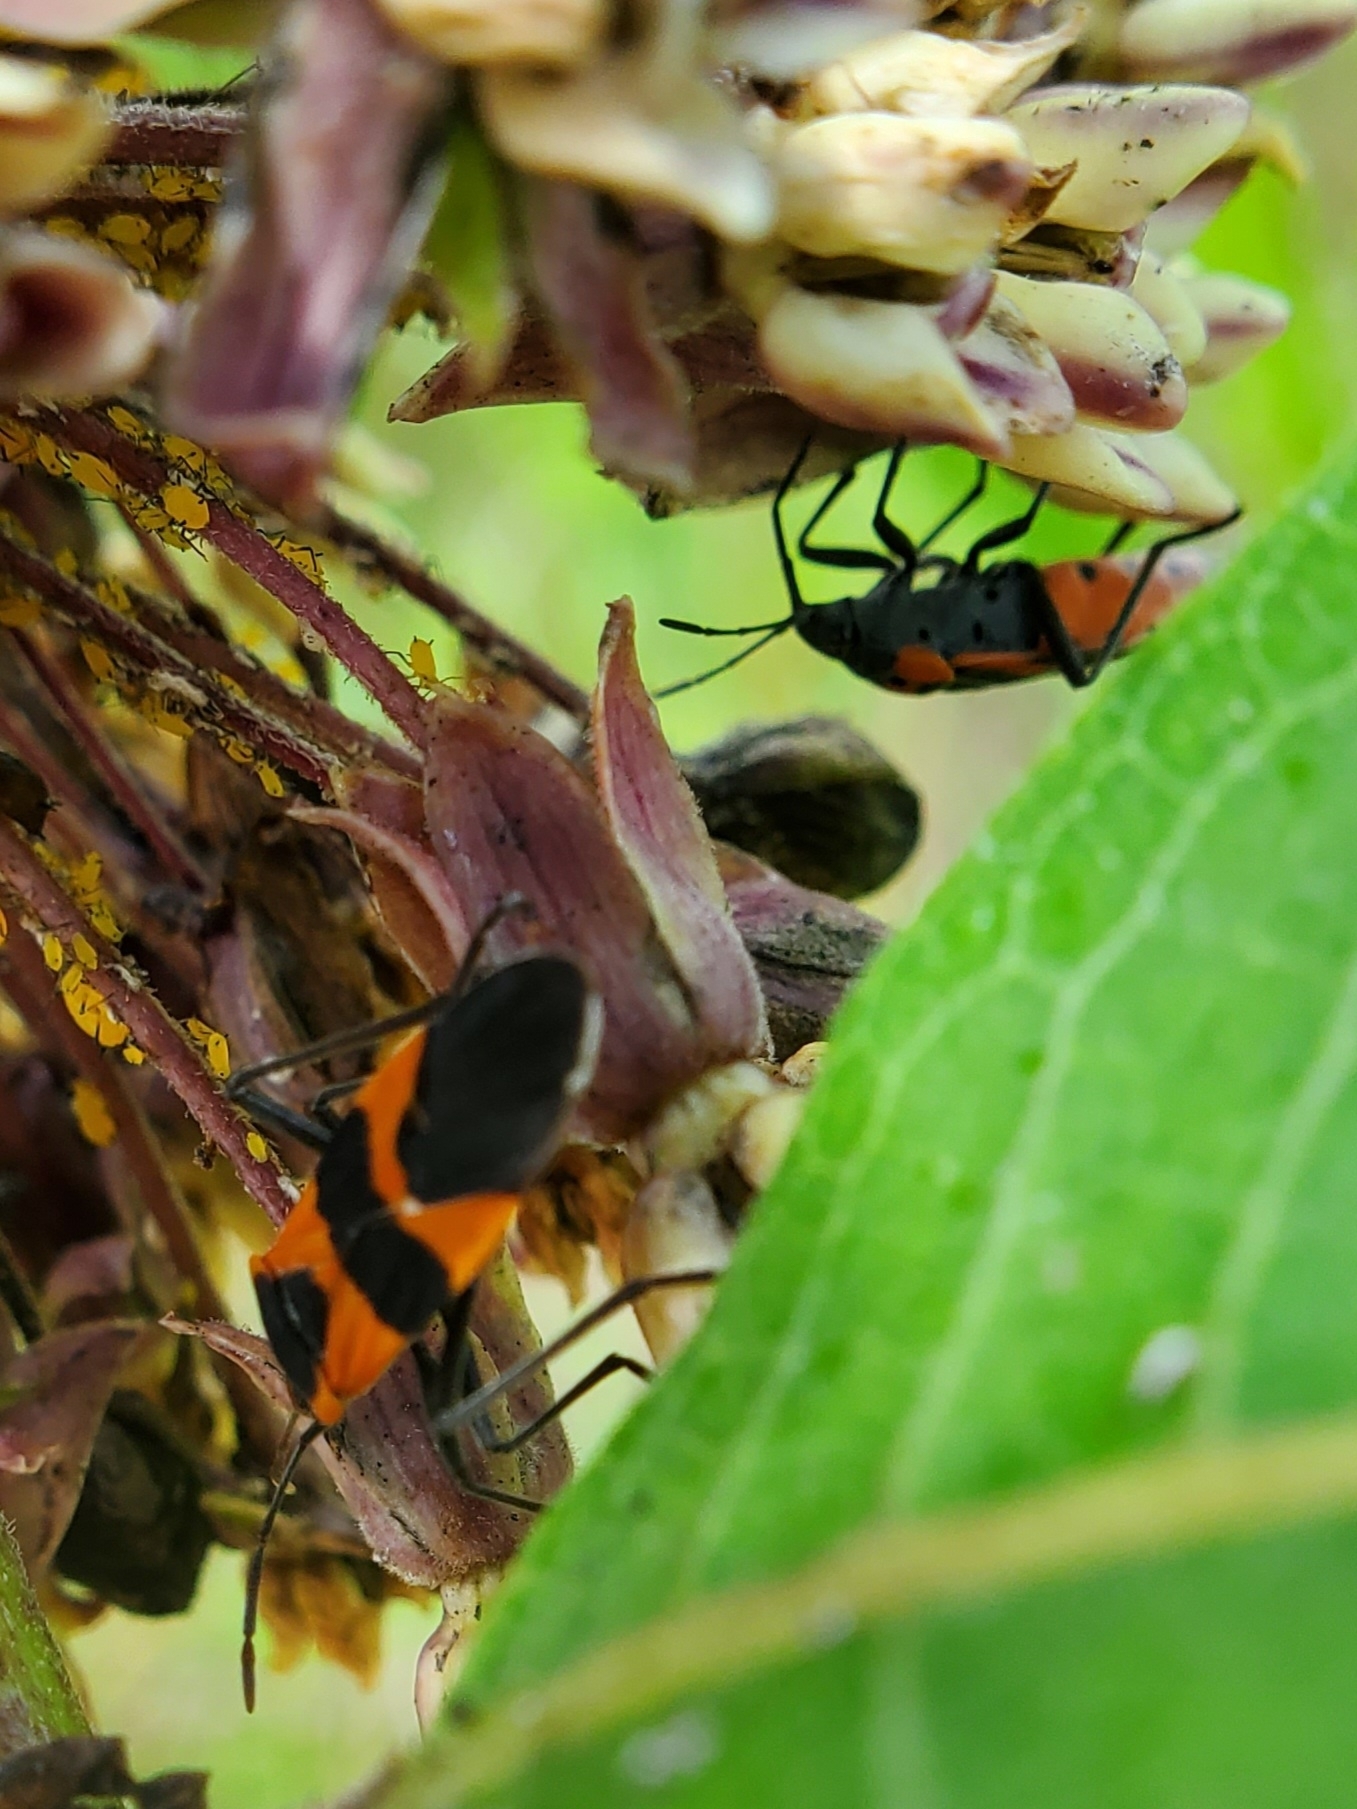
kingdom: Animalia
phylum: Arthropoda
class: Insecta
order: Hemiptera
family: Lygaeidae
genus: Oncopeltus
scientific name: Oncopeltus fasciatus
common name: Large milkweed bug
